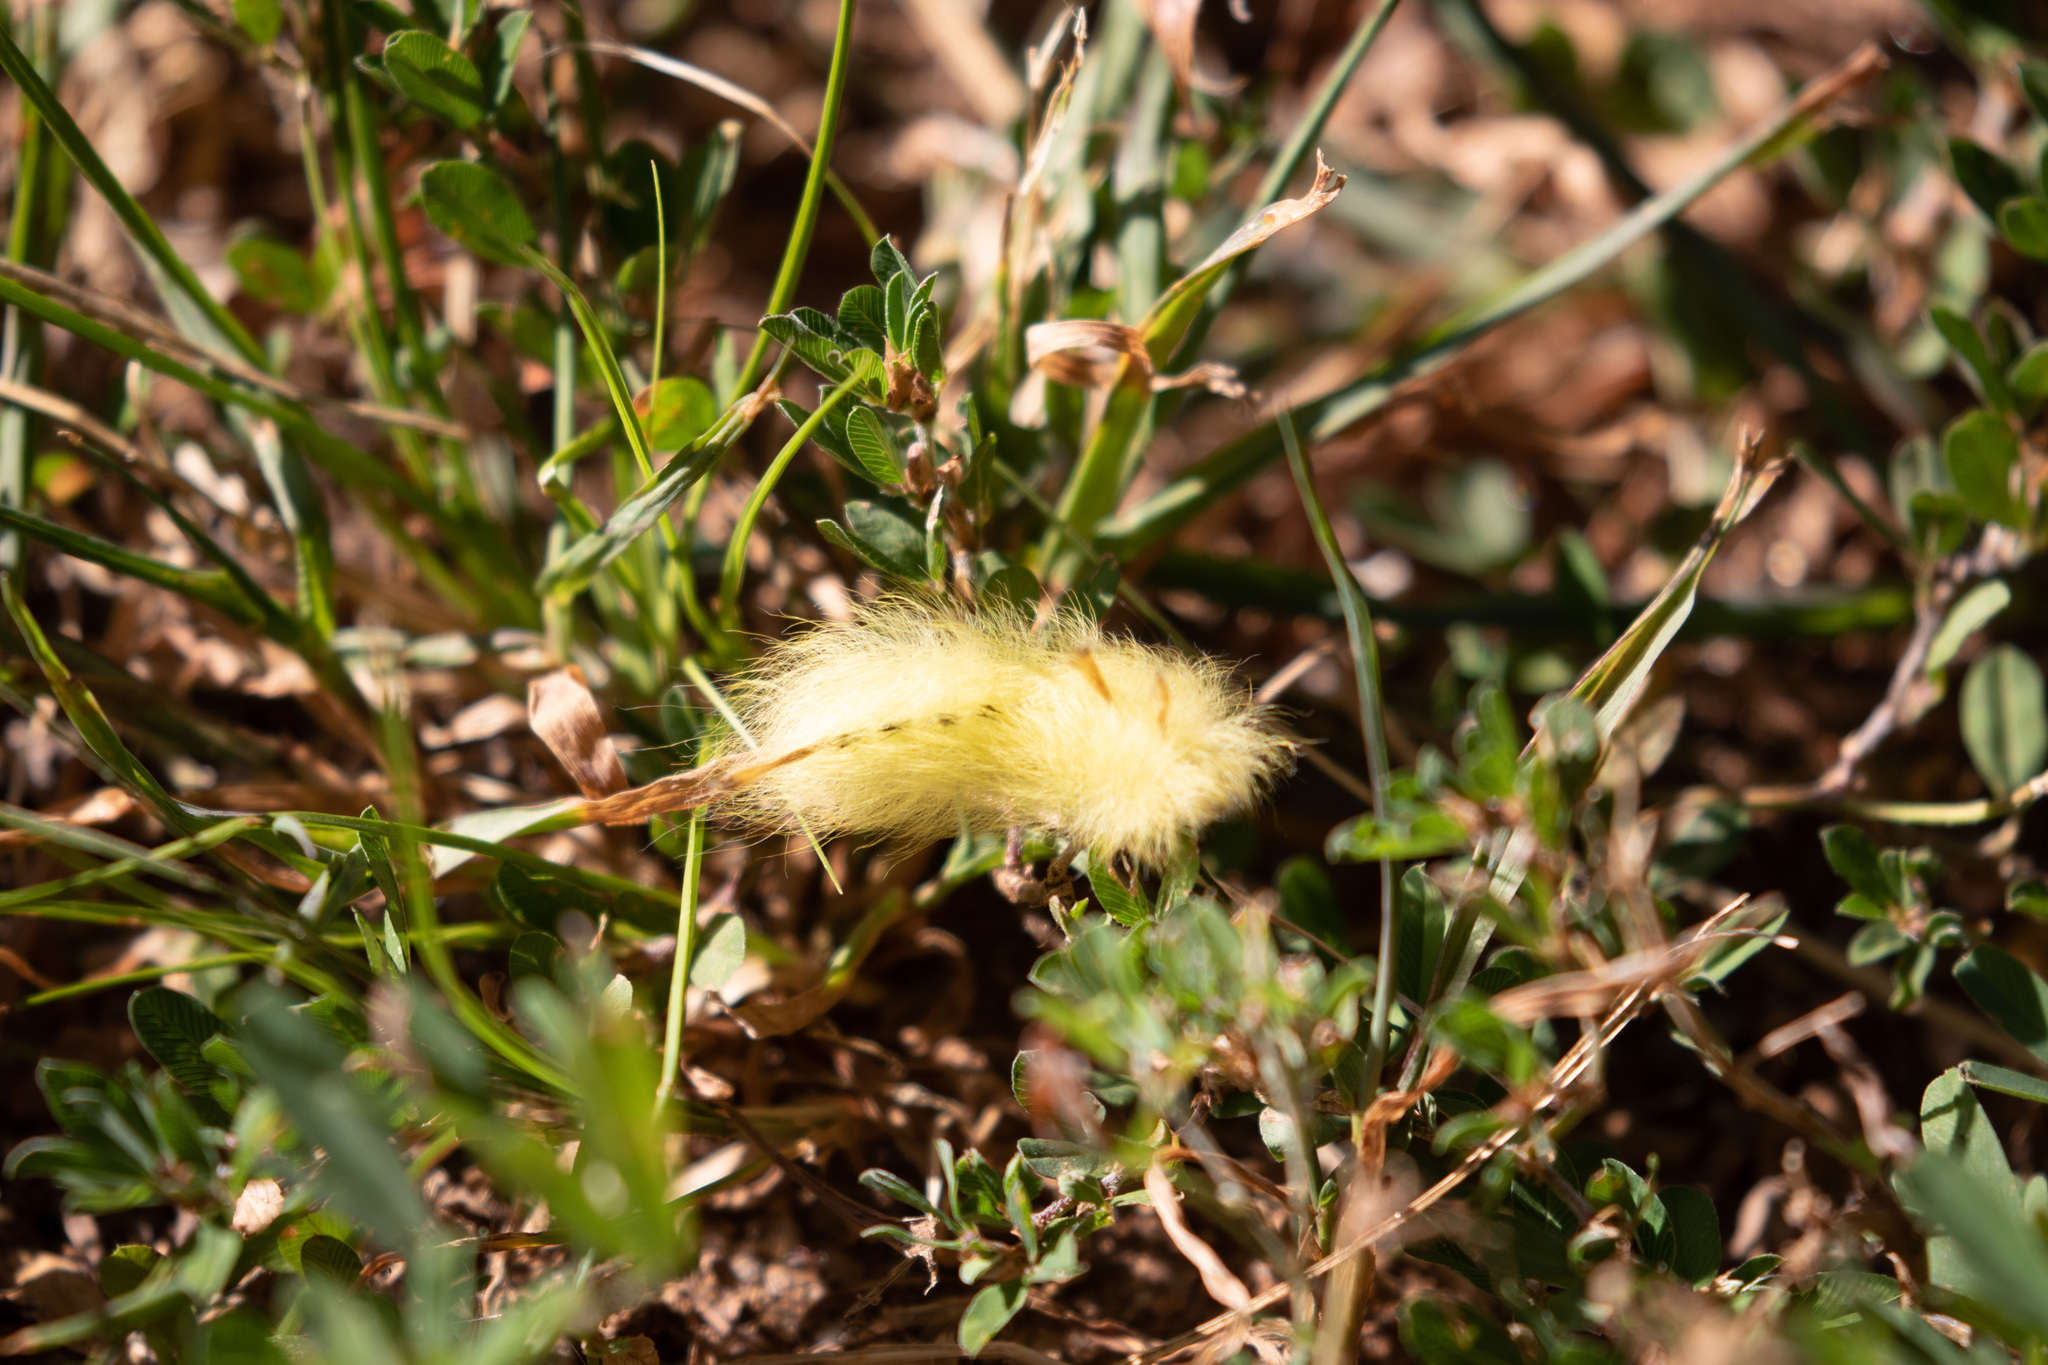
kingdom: Animalia
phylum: Arthropoda
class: Insecta
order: Lepidoptera
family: Apatelodidae
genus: Hygrochroa
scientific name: Hygrochroa Apatelodes torrefacta
